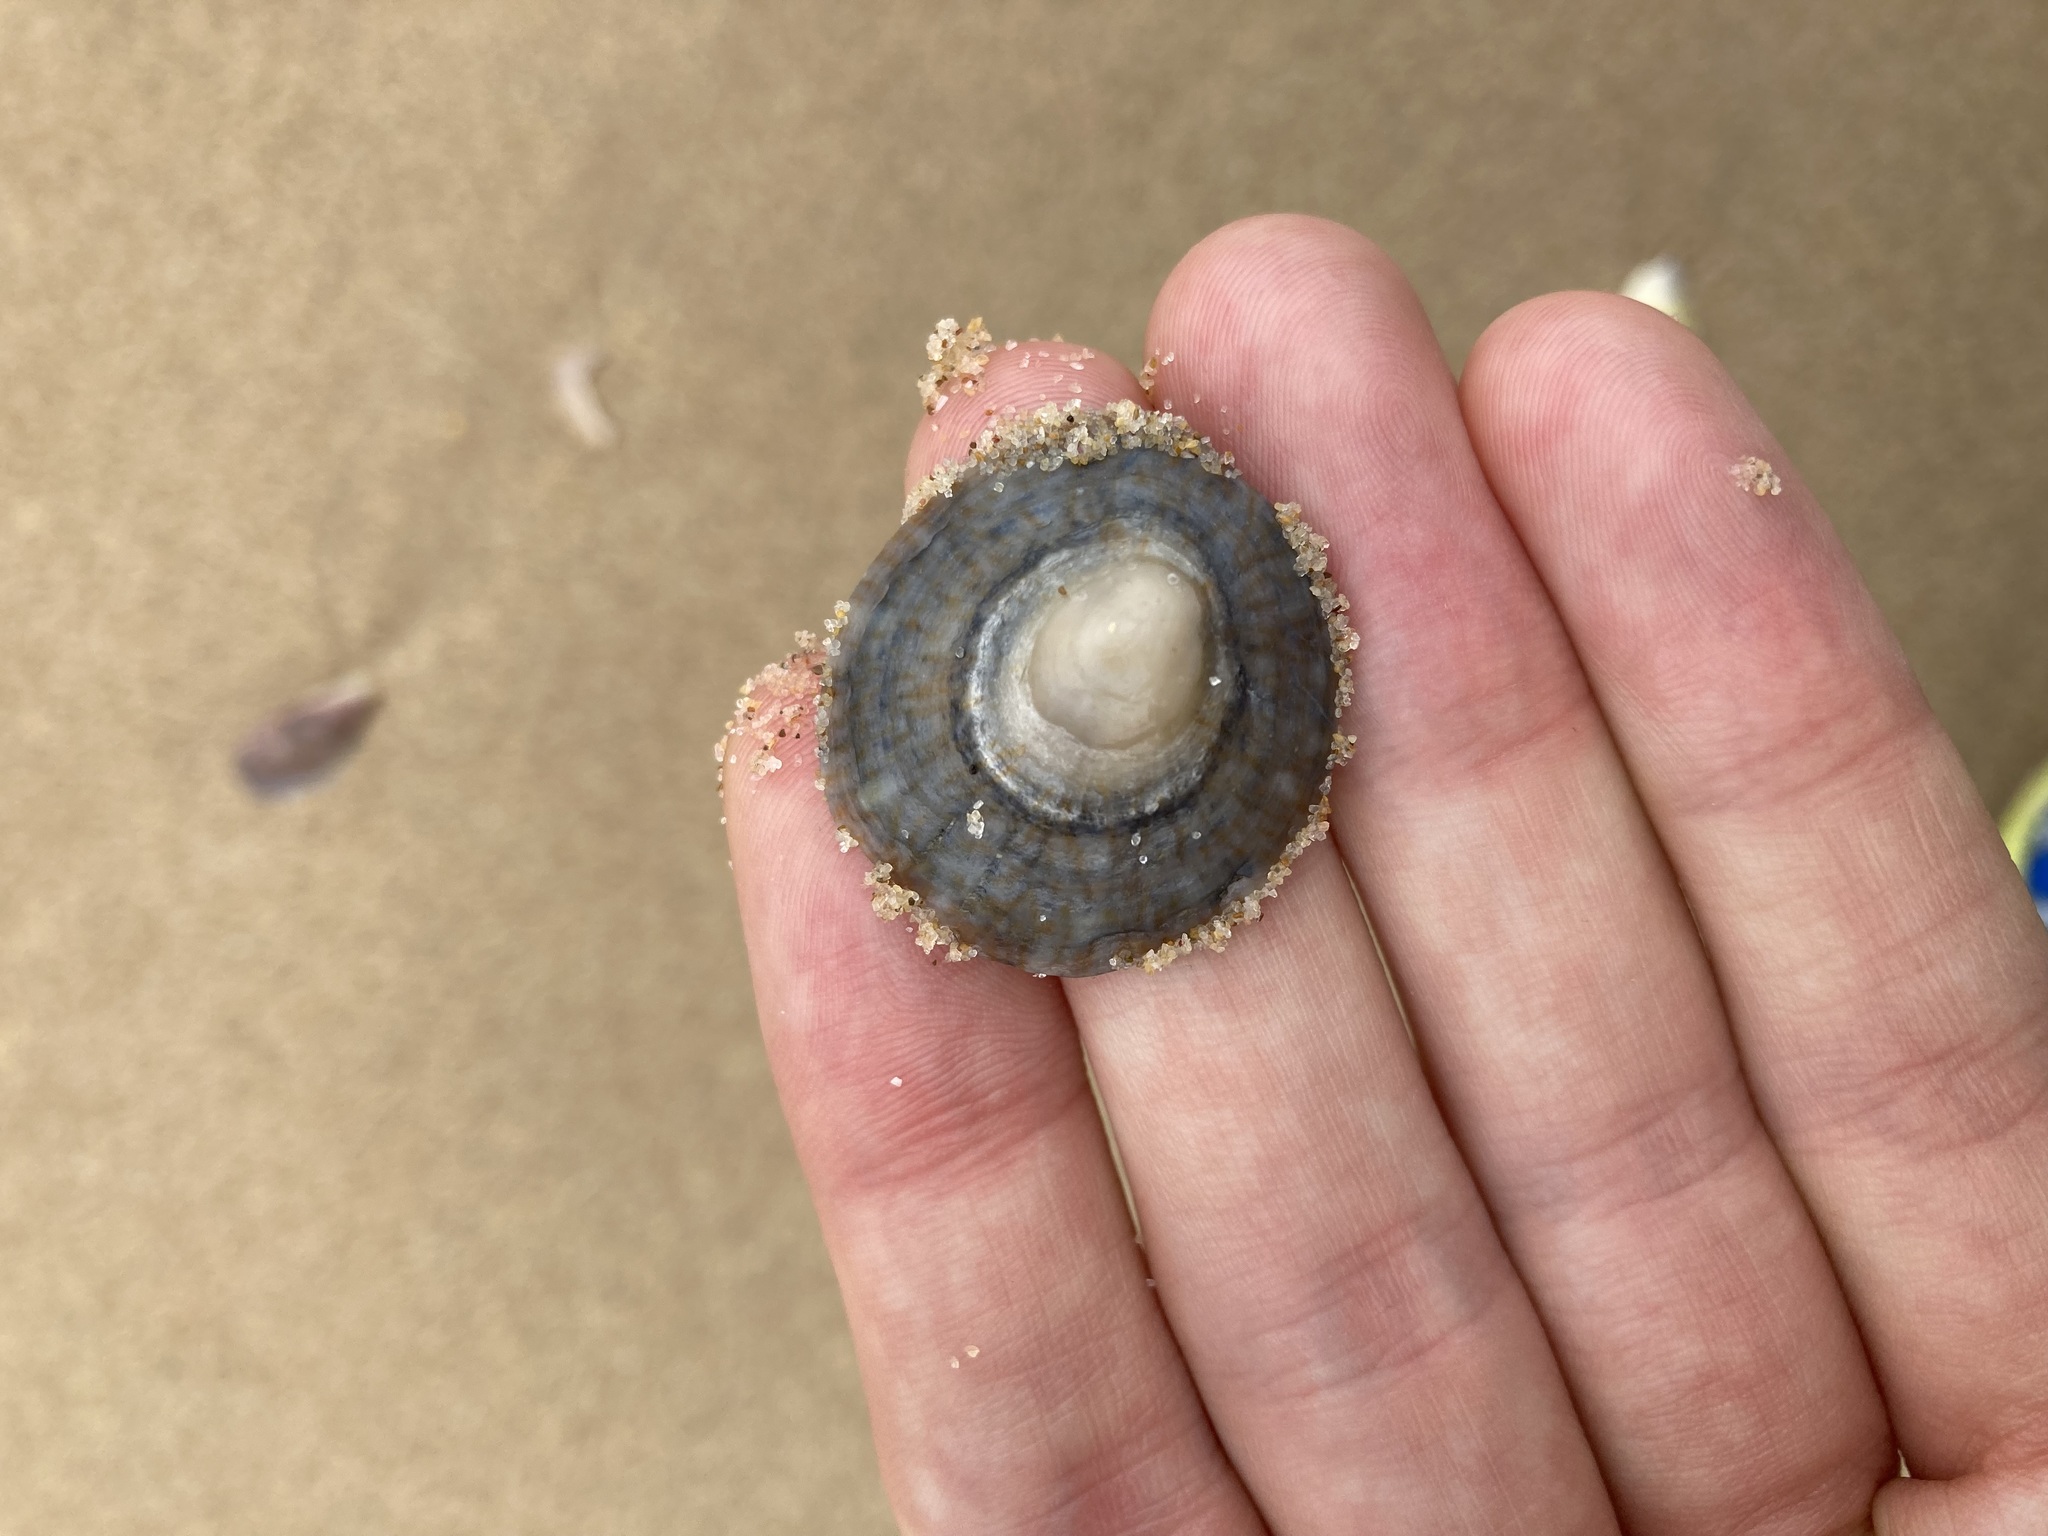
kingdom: Animalia
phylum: Mollusca
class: Gastropoda
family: Nacellidae
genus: Cellana
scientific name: Cellana tramoserica
